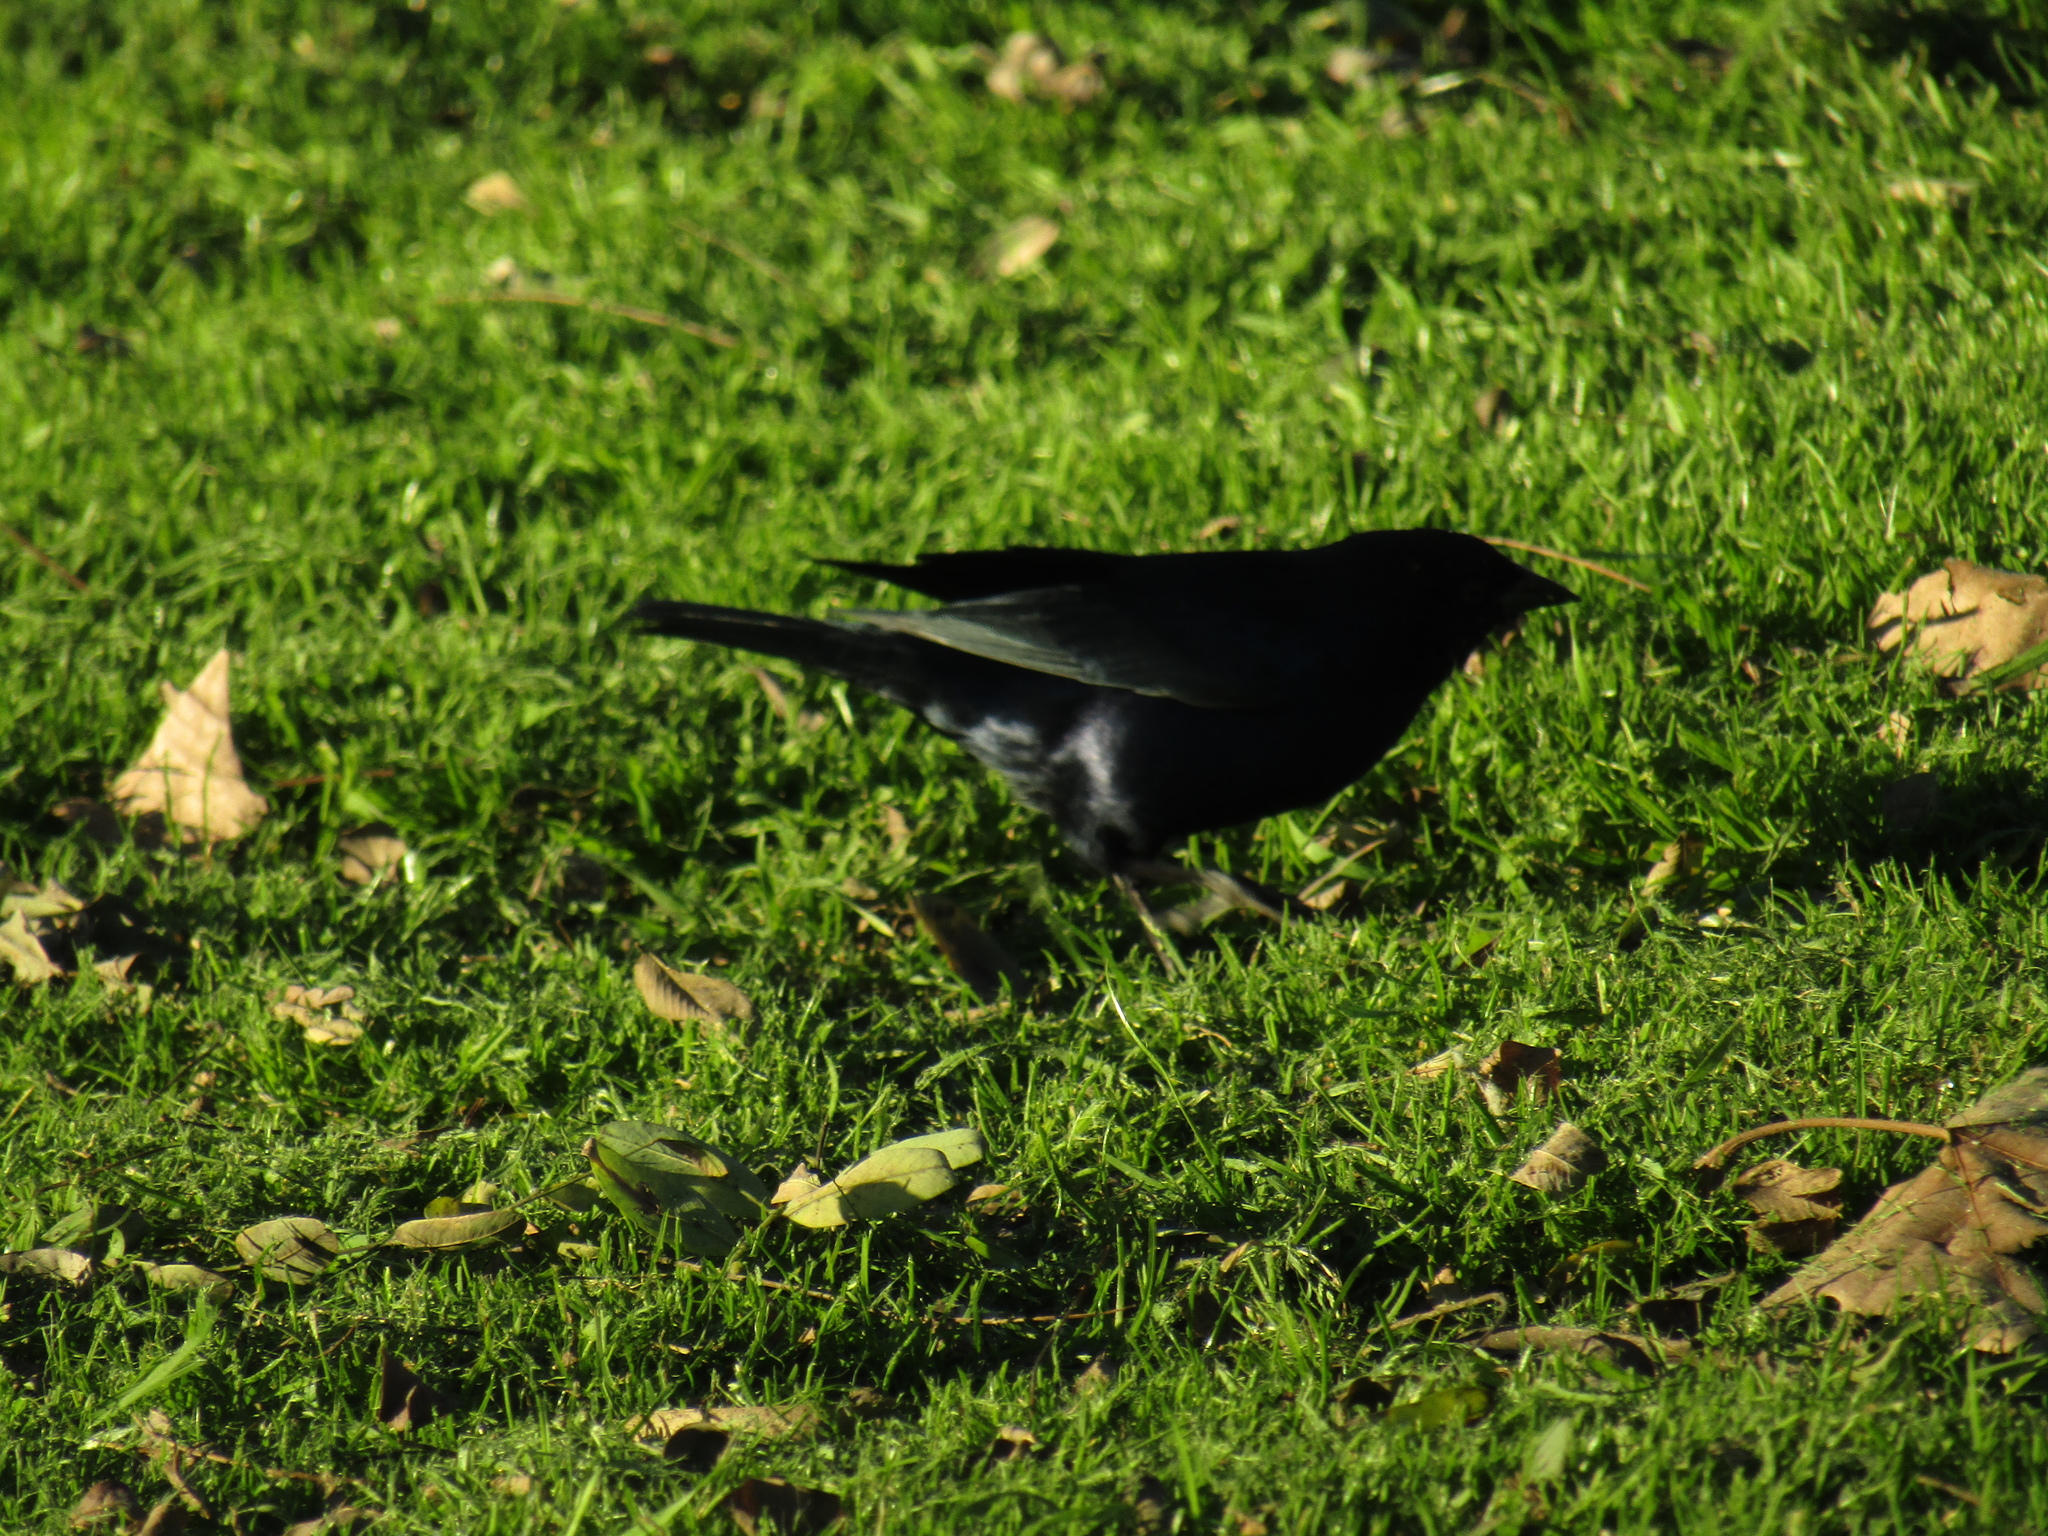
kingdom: Animalia
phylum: Chordata
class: Aves
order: Passeriformes
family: Icteridae
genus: Molothrus
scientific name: Molothrus bonariensis
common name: Shiny cowbird
